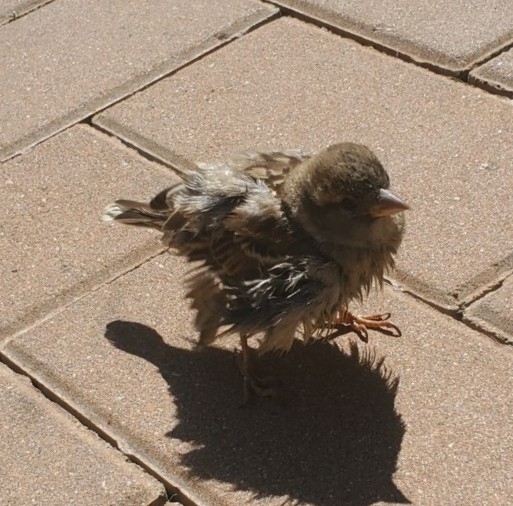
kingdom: Animalia
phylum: Chordata
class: Aves
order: Passeriformes
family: Passeridae
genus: Passer
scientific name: Passer domesticus
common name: House sparrow
